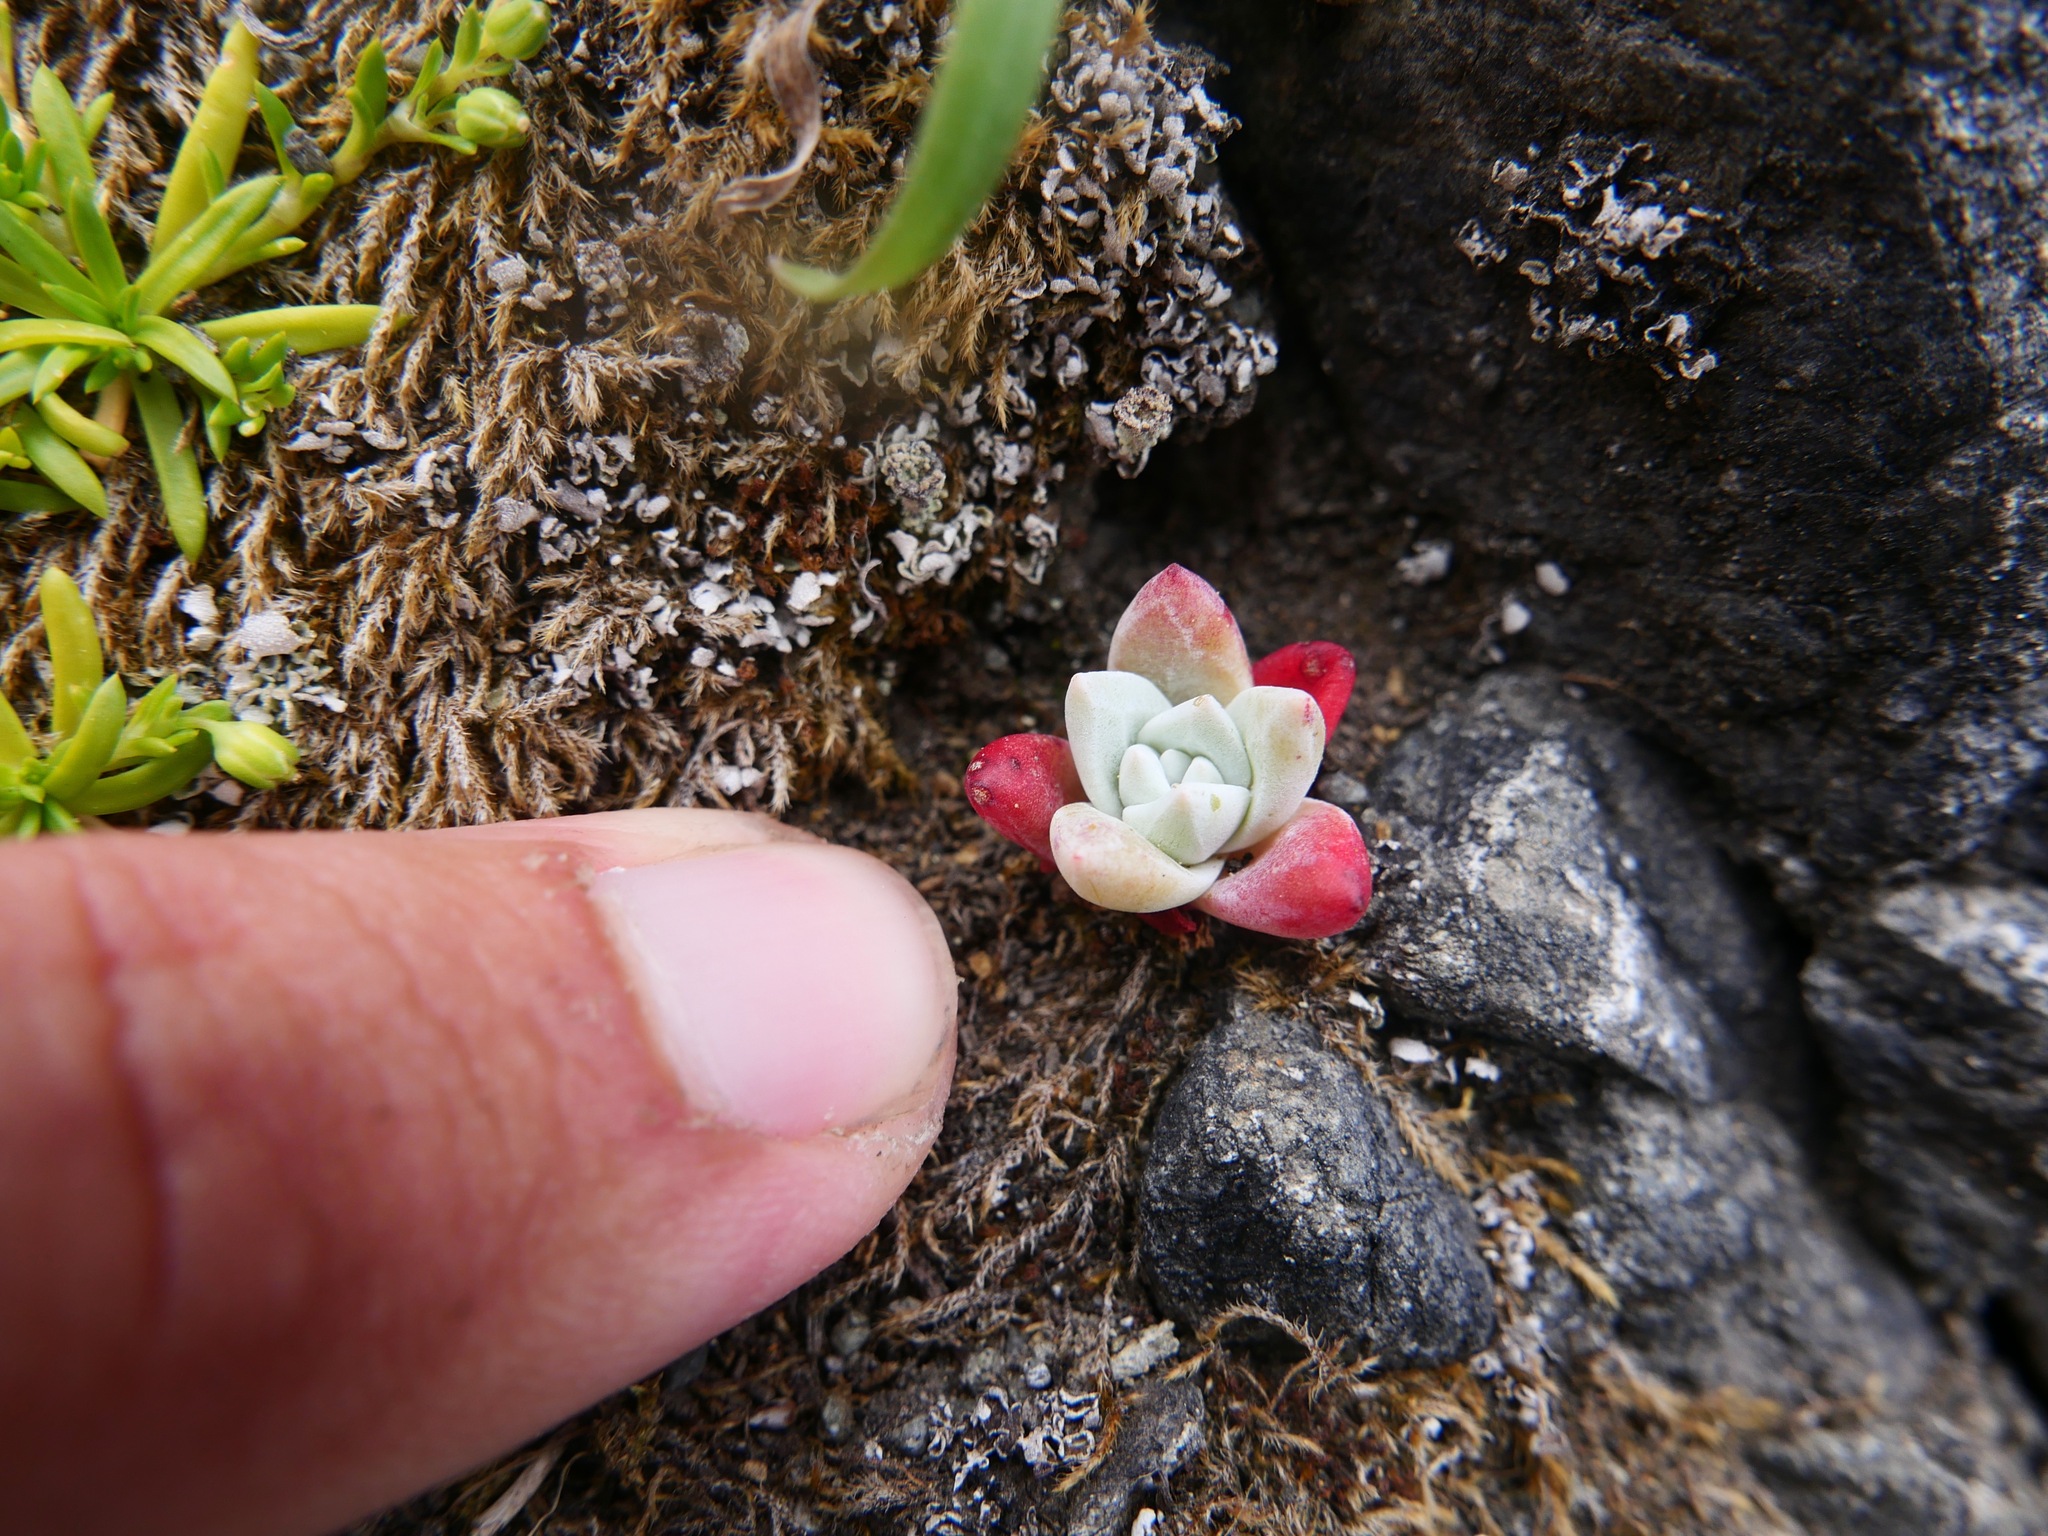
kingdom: Plantae
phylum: Tracheophyta
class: Magnoliopsida
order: Saxifragales
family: Crassulaceae
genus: Dudleya
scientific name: Dudleya farinosa
